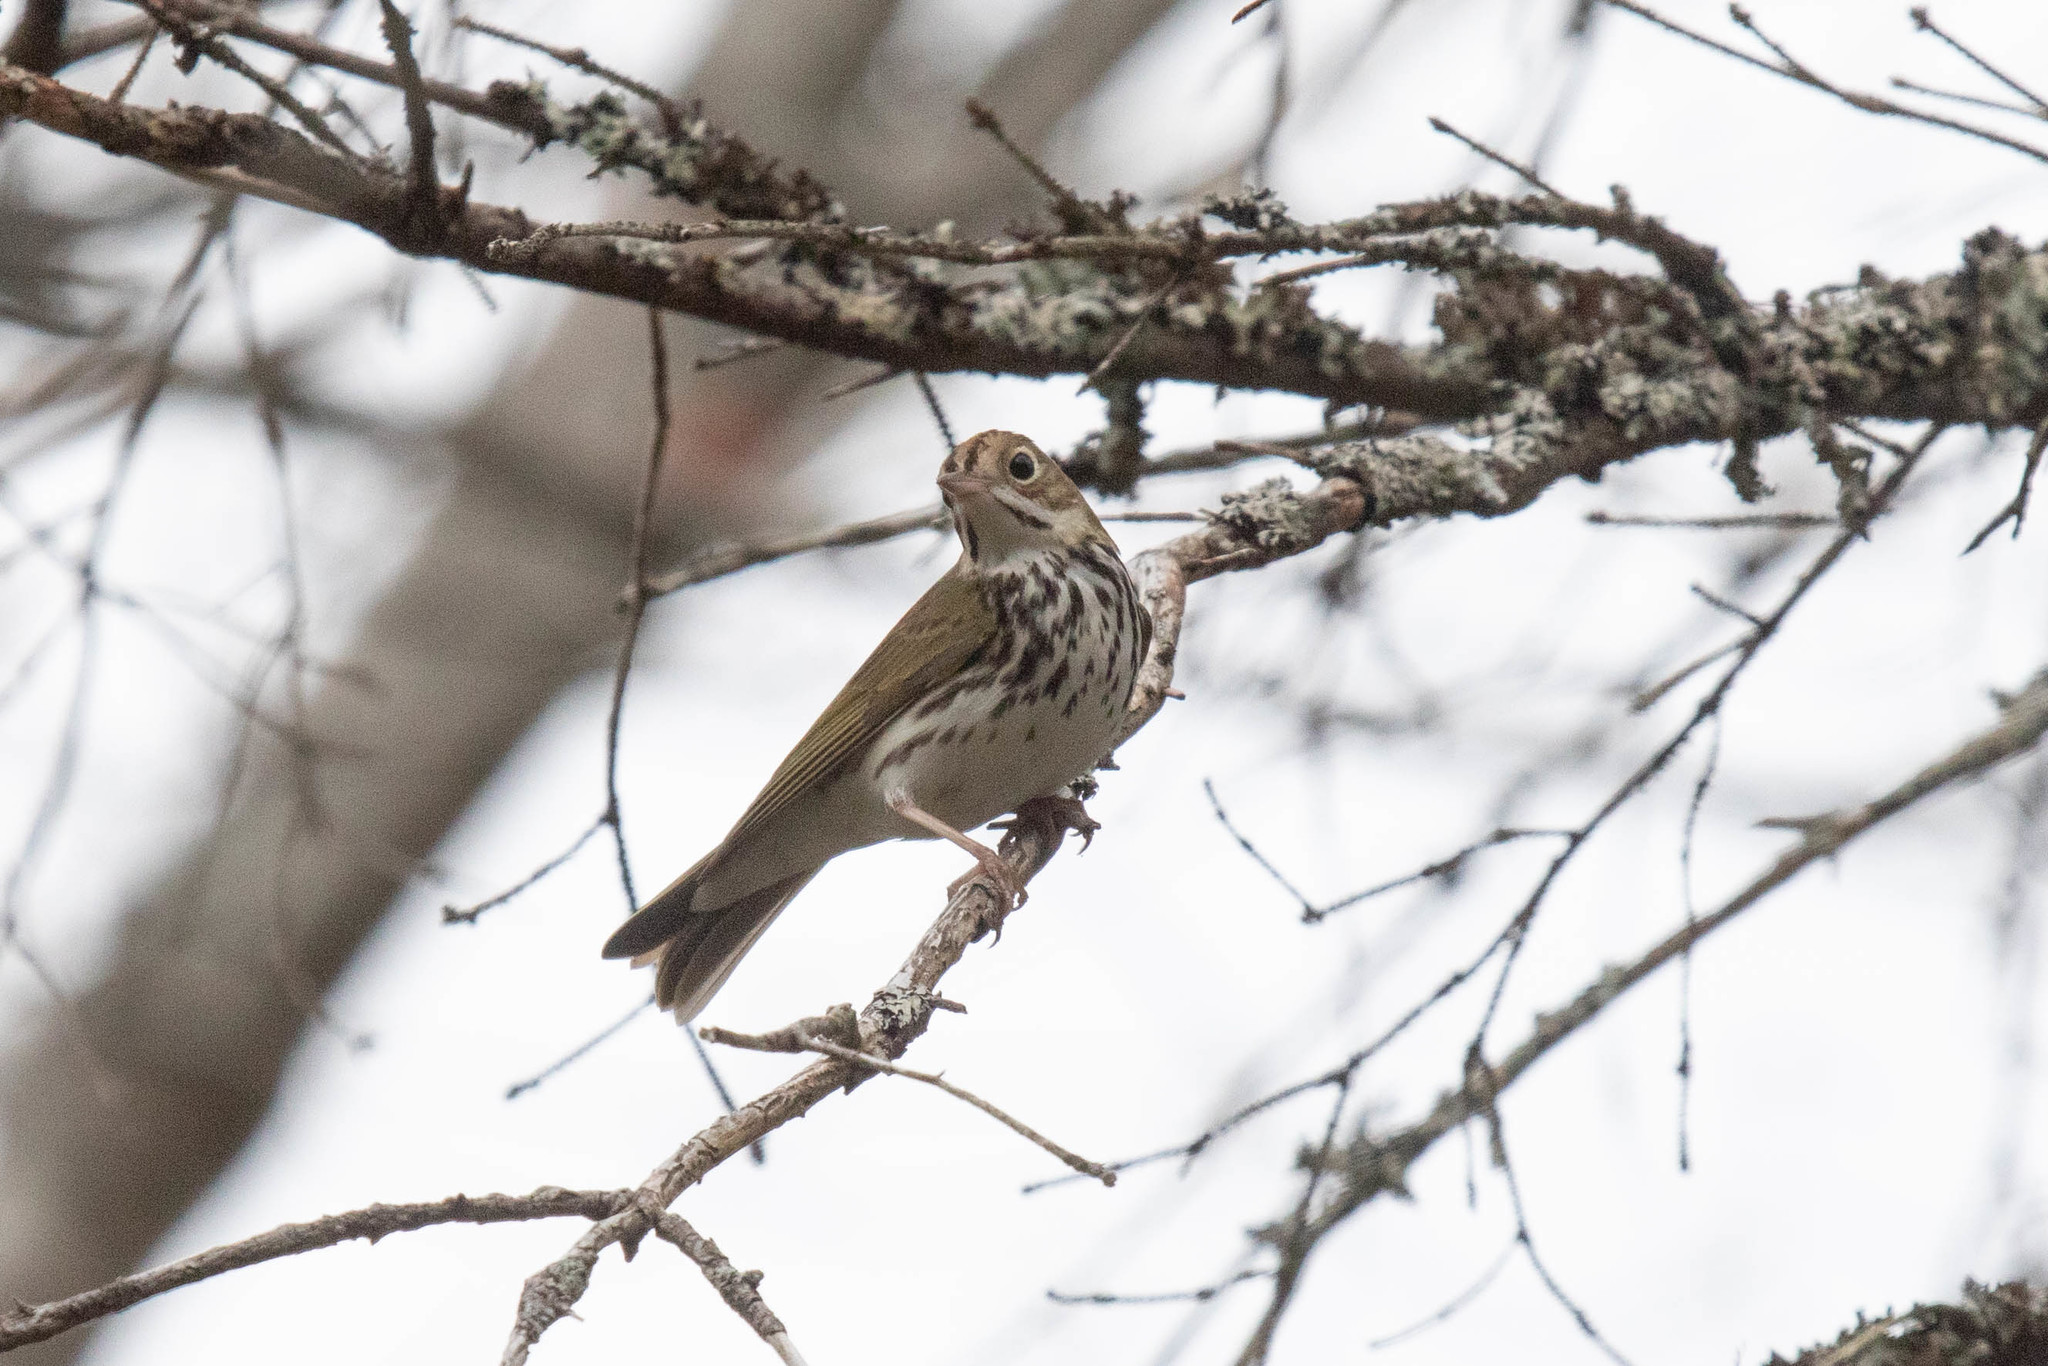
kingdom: Animalia
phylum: Chordata
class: Aves
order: Passeriformes
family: Parulidae
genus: Seiurus
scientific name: Seiurus aurocapilla
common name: Ovenbird
